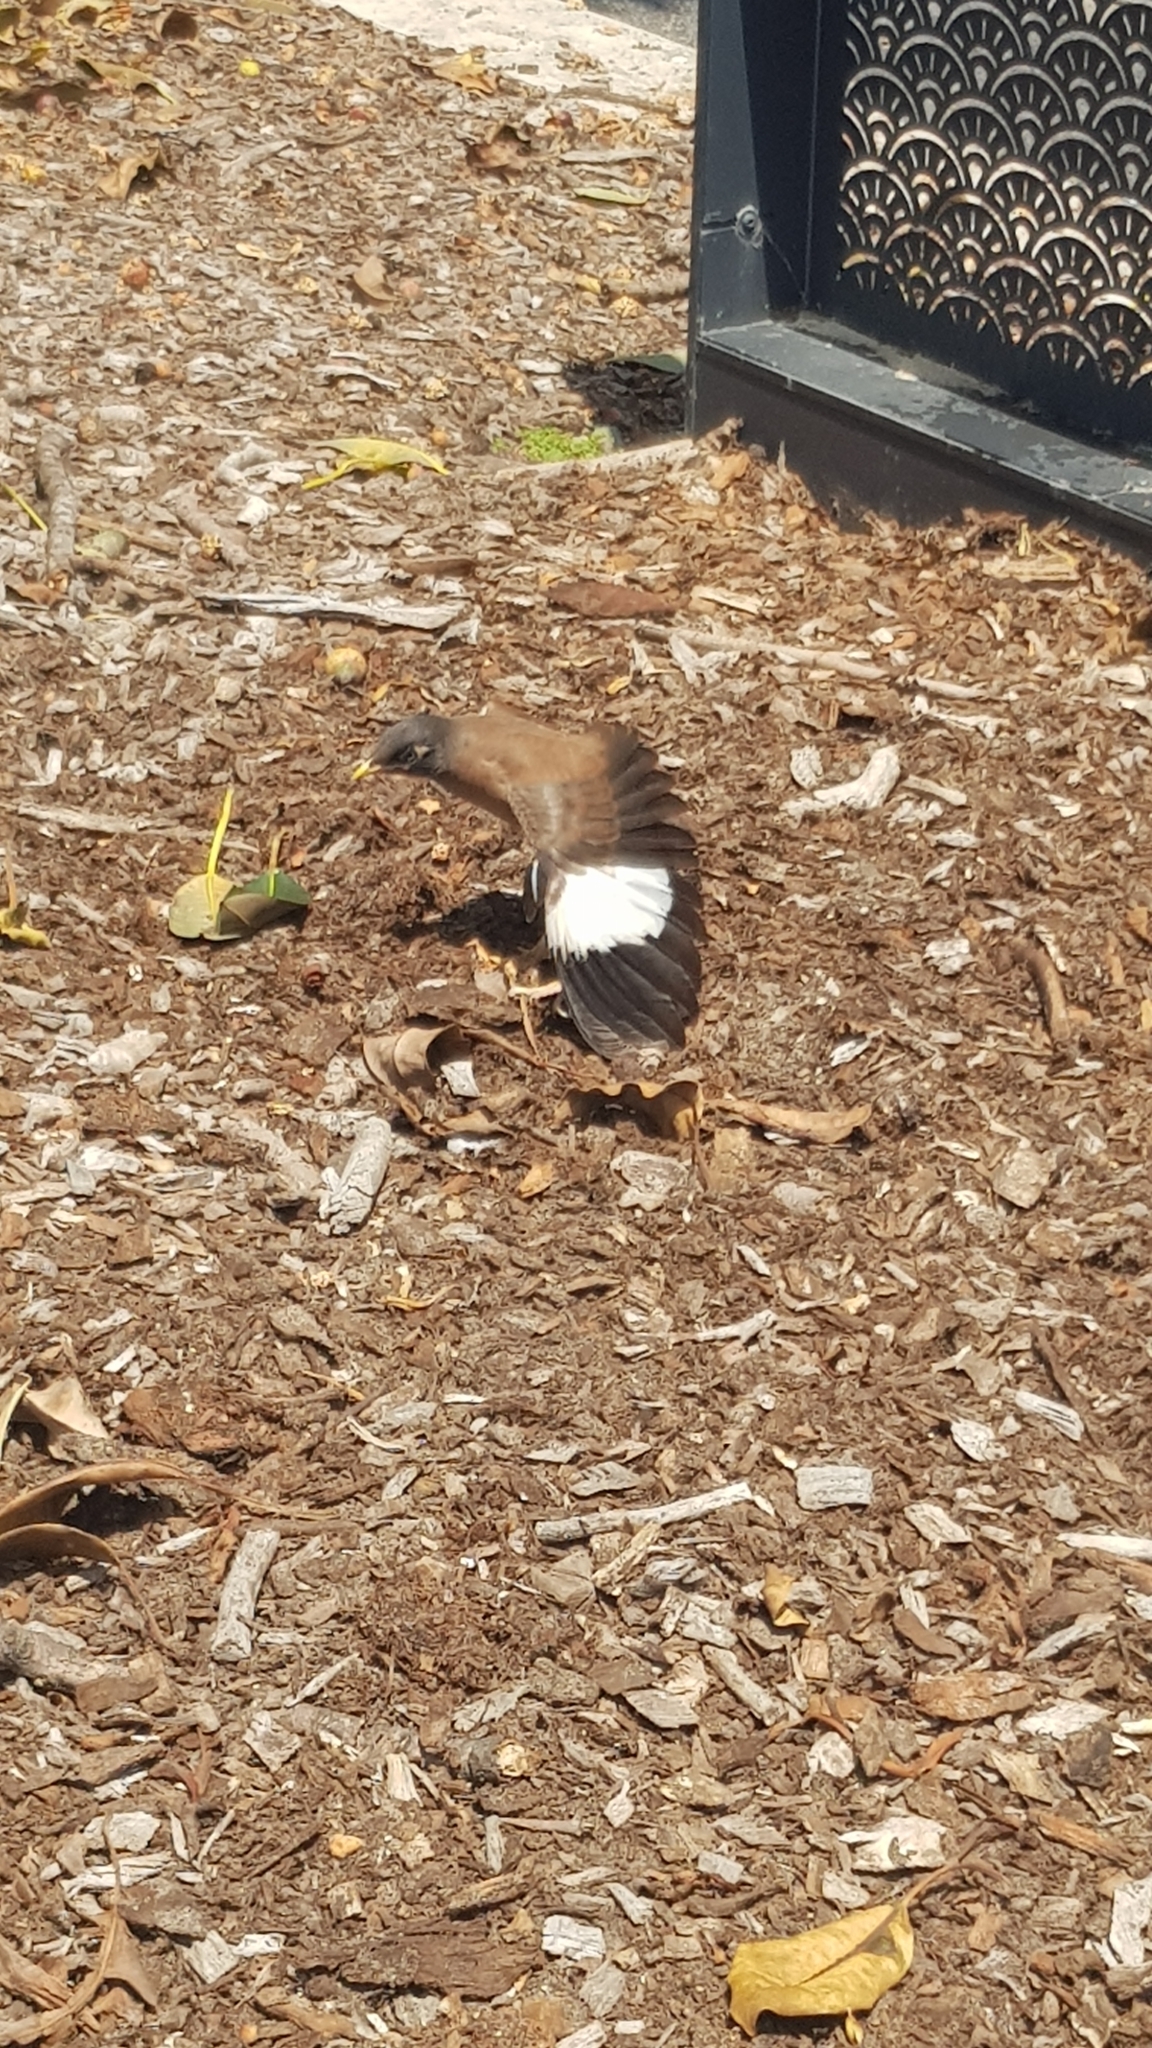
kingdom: Animalia
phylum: Chordata
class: Aves
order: Passeriformes
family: Sturnidae
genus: Acridotheres
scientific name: Acridotheres tristis
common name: Common myna
